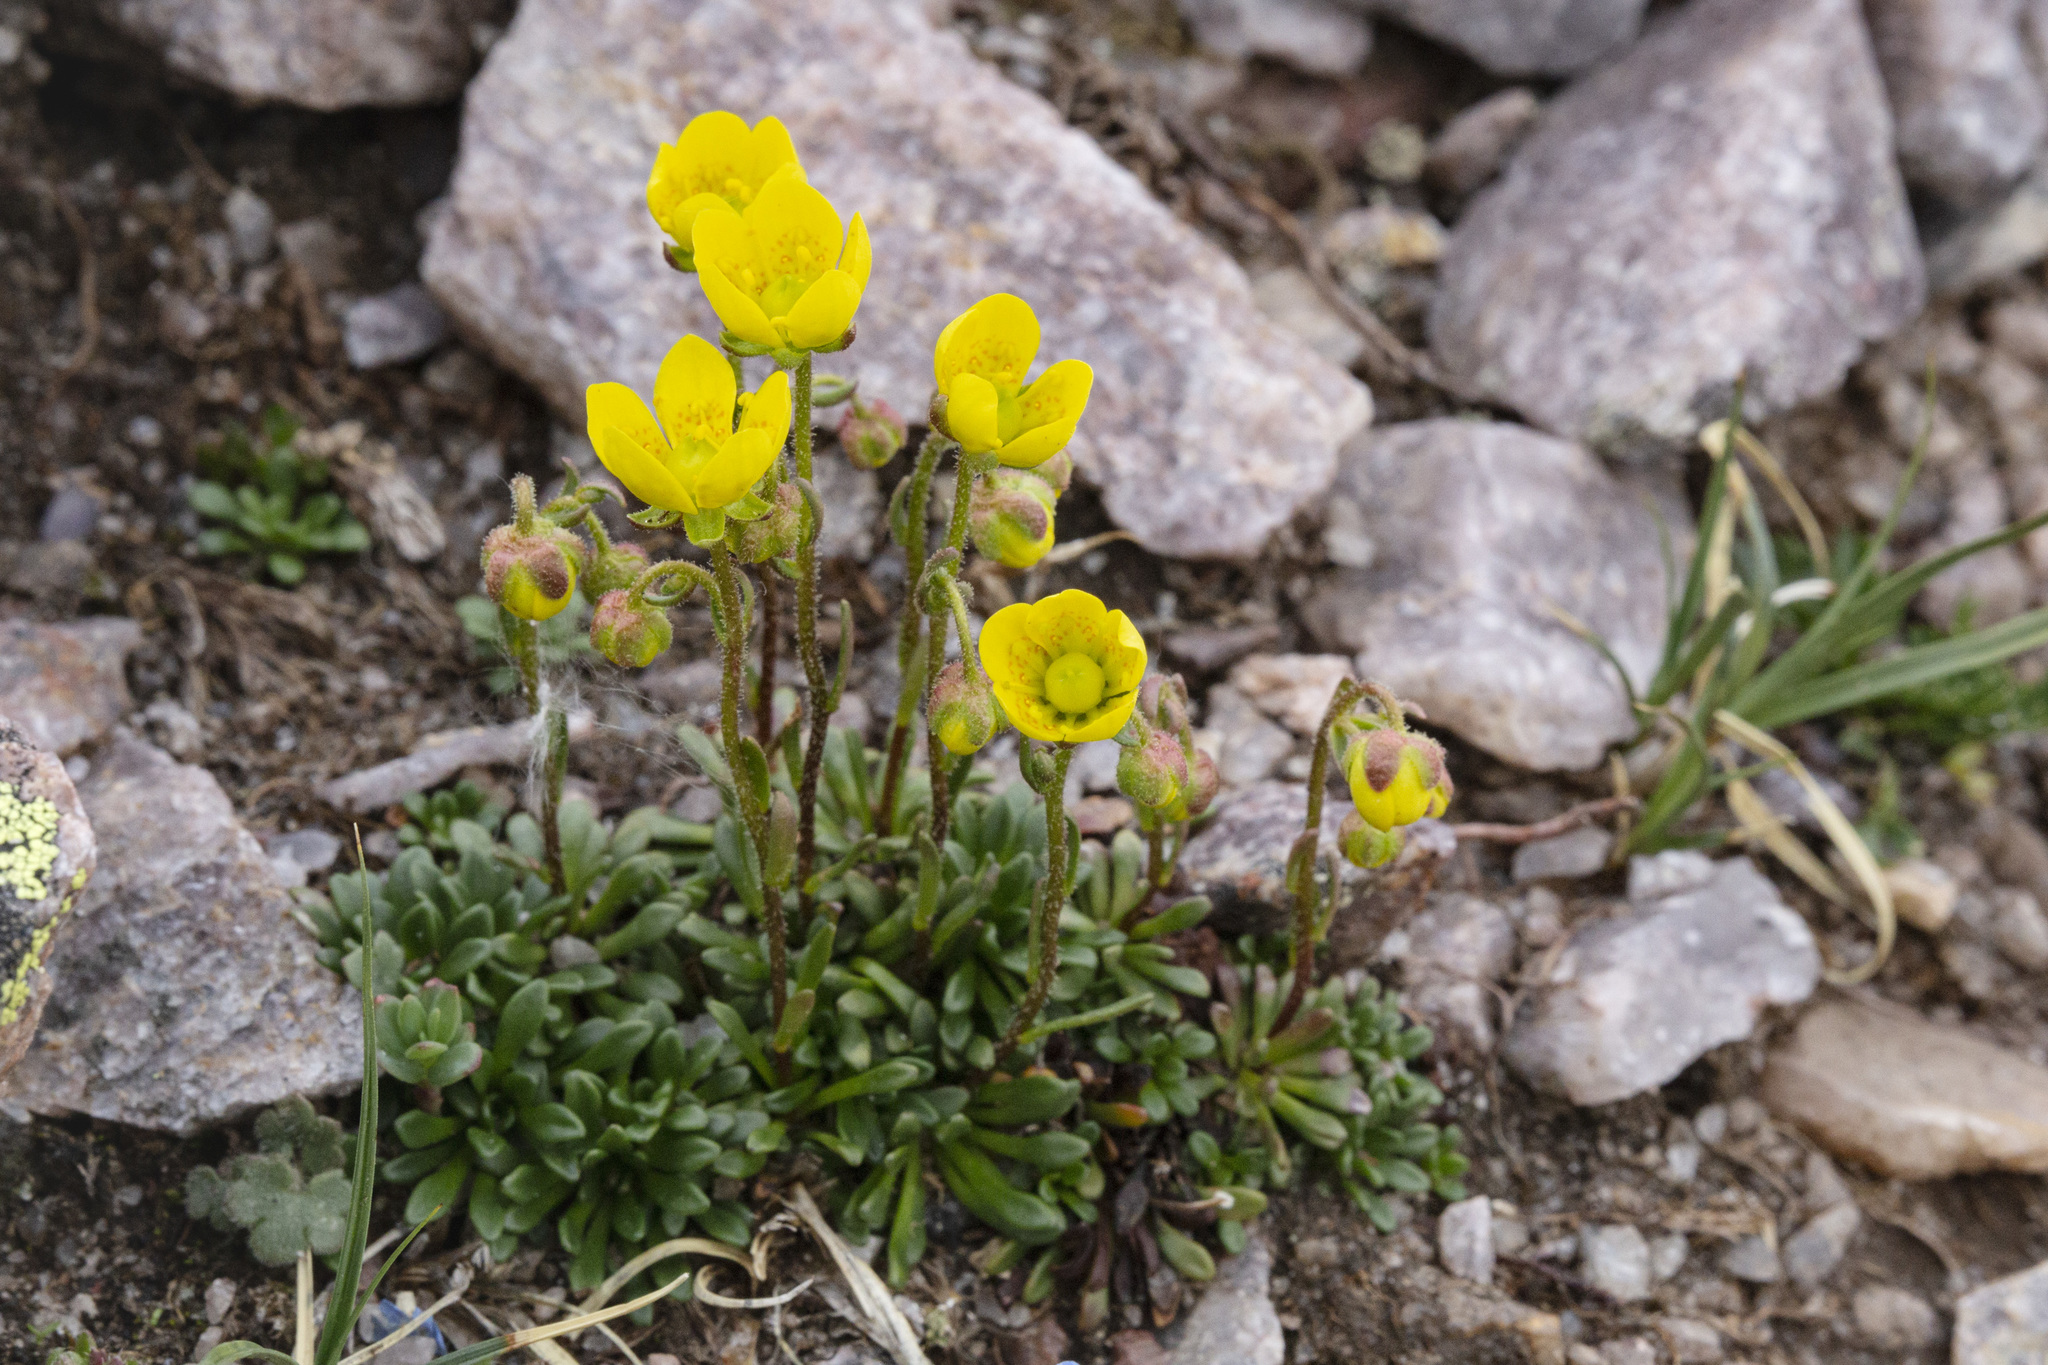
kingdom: Plantae
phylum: Tracheophyta
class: Magnoliopsida
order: Saxifragales
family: Saxifragaceae
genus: Saxifraga
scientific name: Saxifraga chrysantha
